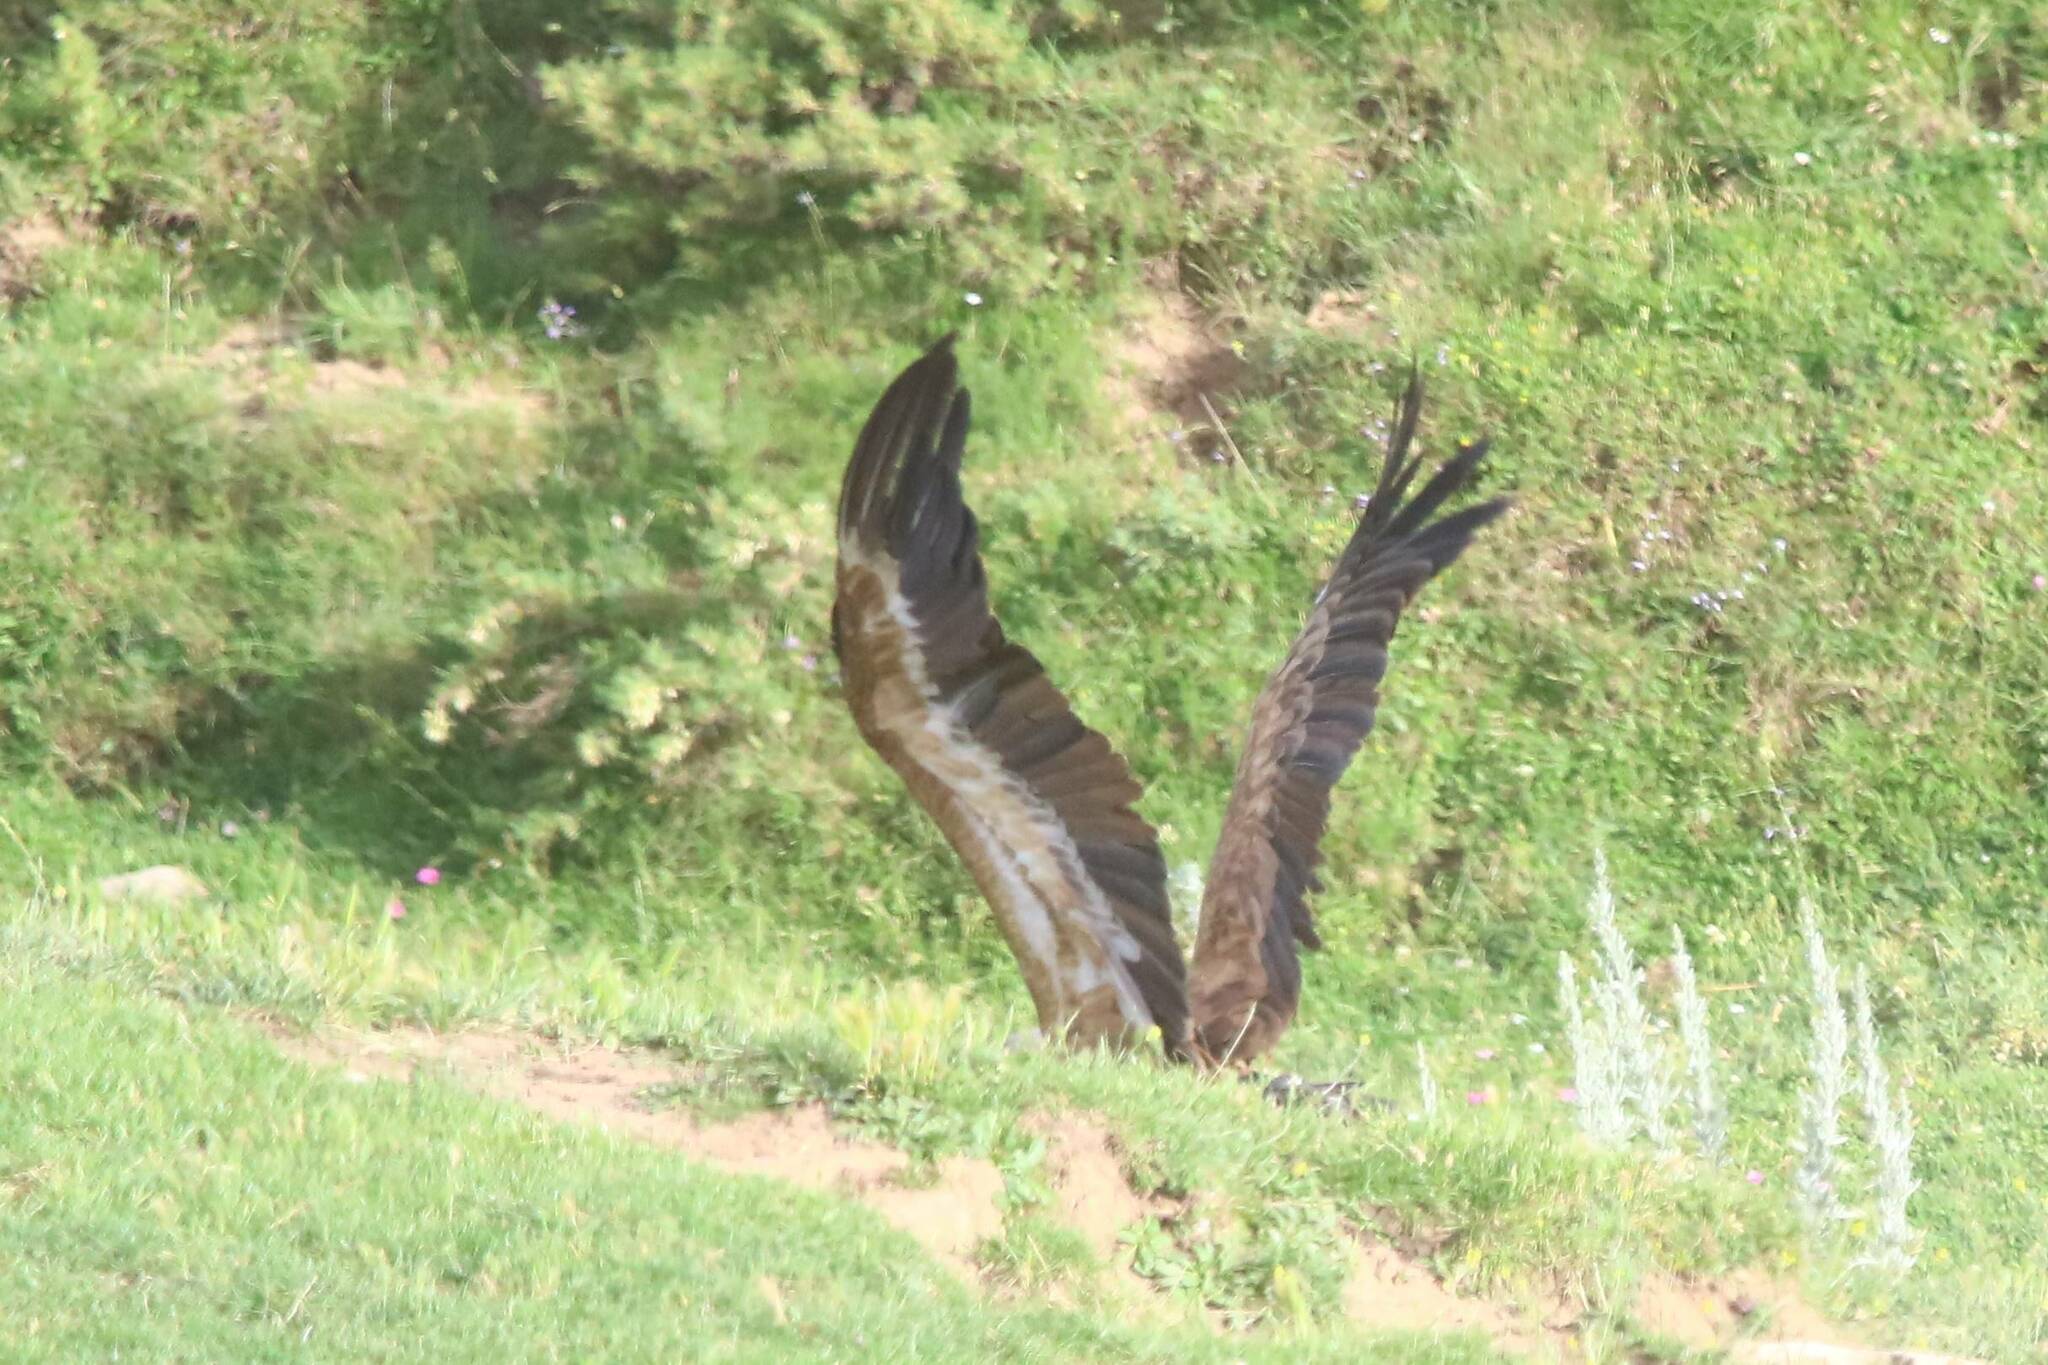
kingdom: Animalia
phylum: Chordata
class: Aves
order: Accipitriformes
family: Accipitridae
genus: Gyps
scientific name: Gyps fulvus
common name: Griffon vulture
